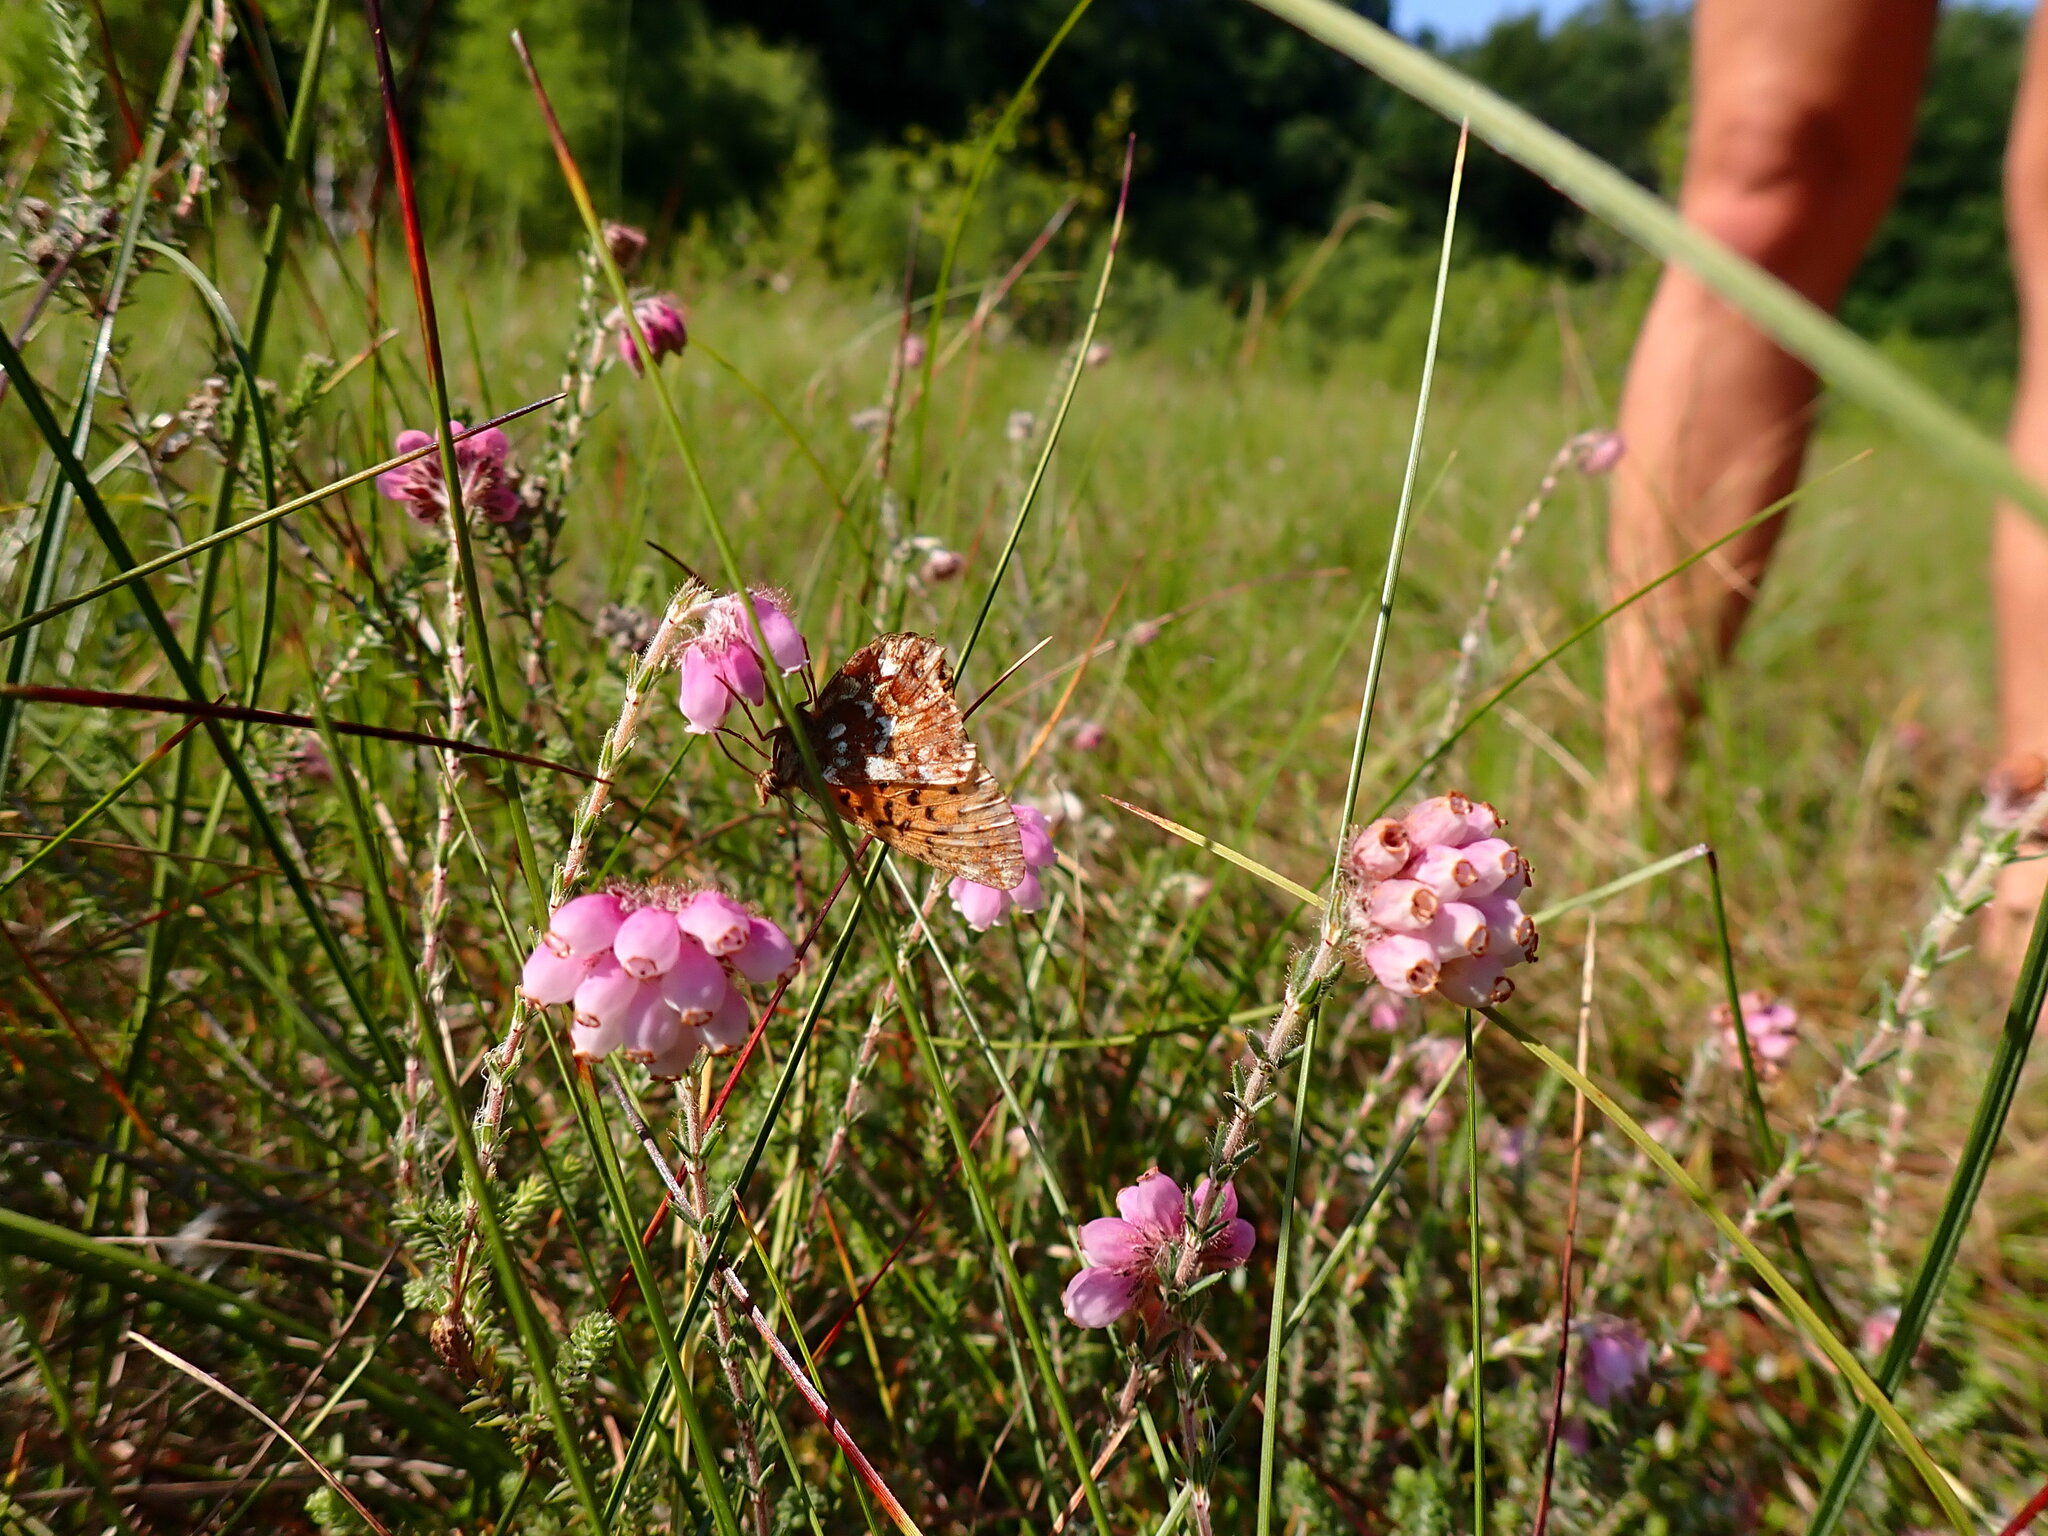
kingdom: Animalia
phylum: Arthropoda
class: Insecta
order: Lepidoptera
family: Nymphalidae
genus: Boloria
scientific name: Boloria aquilonaris
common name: Cranberry fritillary
